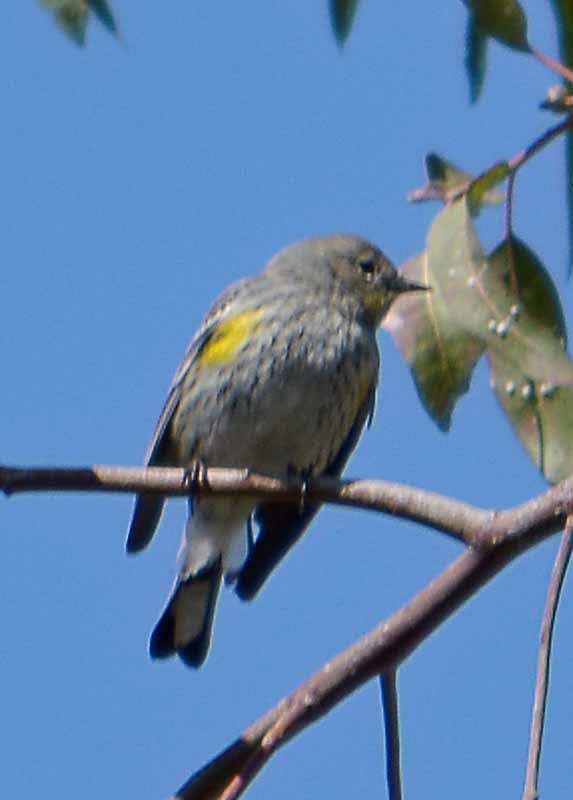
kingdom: Animalia
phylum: Chordata
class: Aves
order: Passeriformes
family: Parulidae
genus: Setophaga
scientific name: Setophaga coronata
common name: Myrtle warbler
